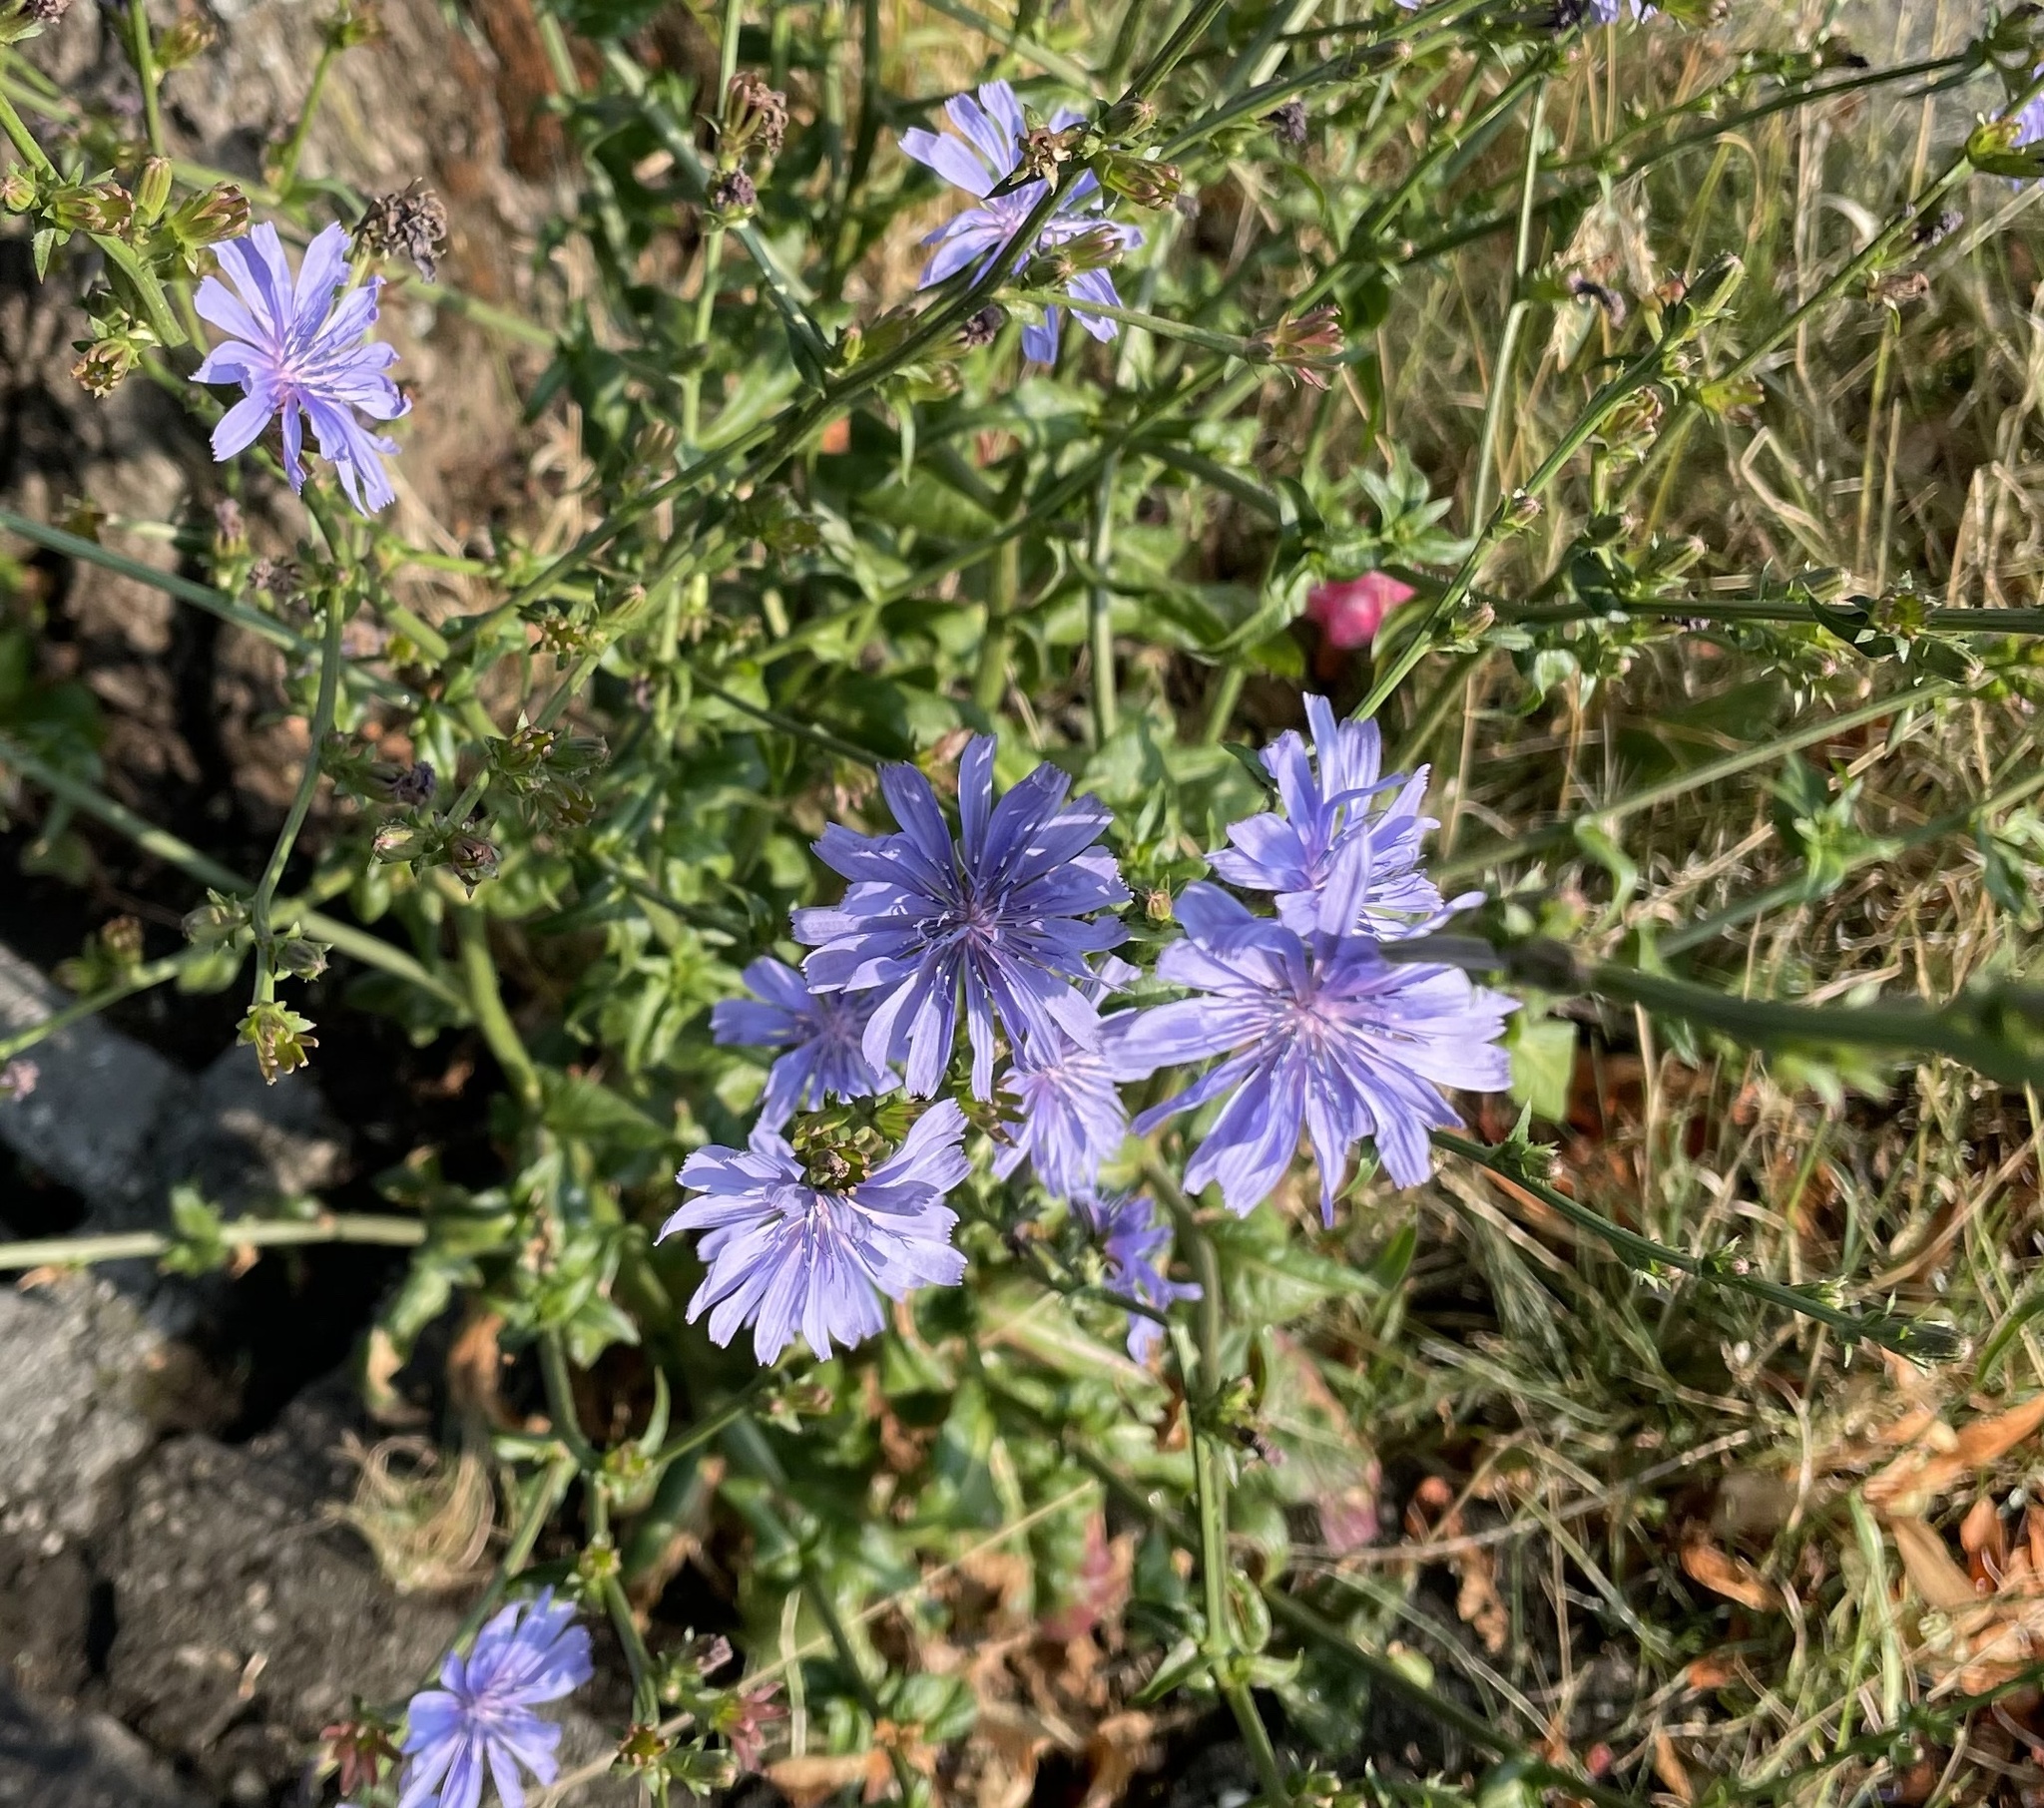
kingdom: Plantae
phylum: Tracheophyta
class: Magnoliopsida
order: Asterales
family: Asteraceae
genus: Cichorium
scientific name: Cichorium intybus
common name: Chicory
